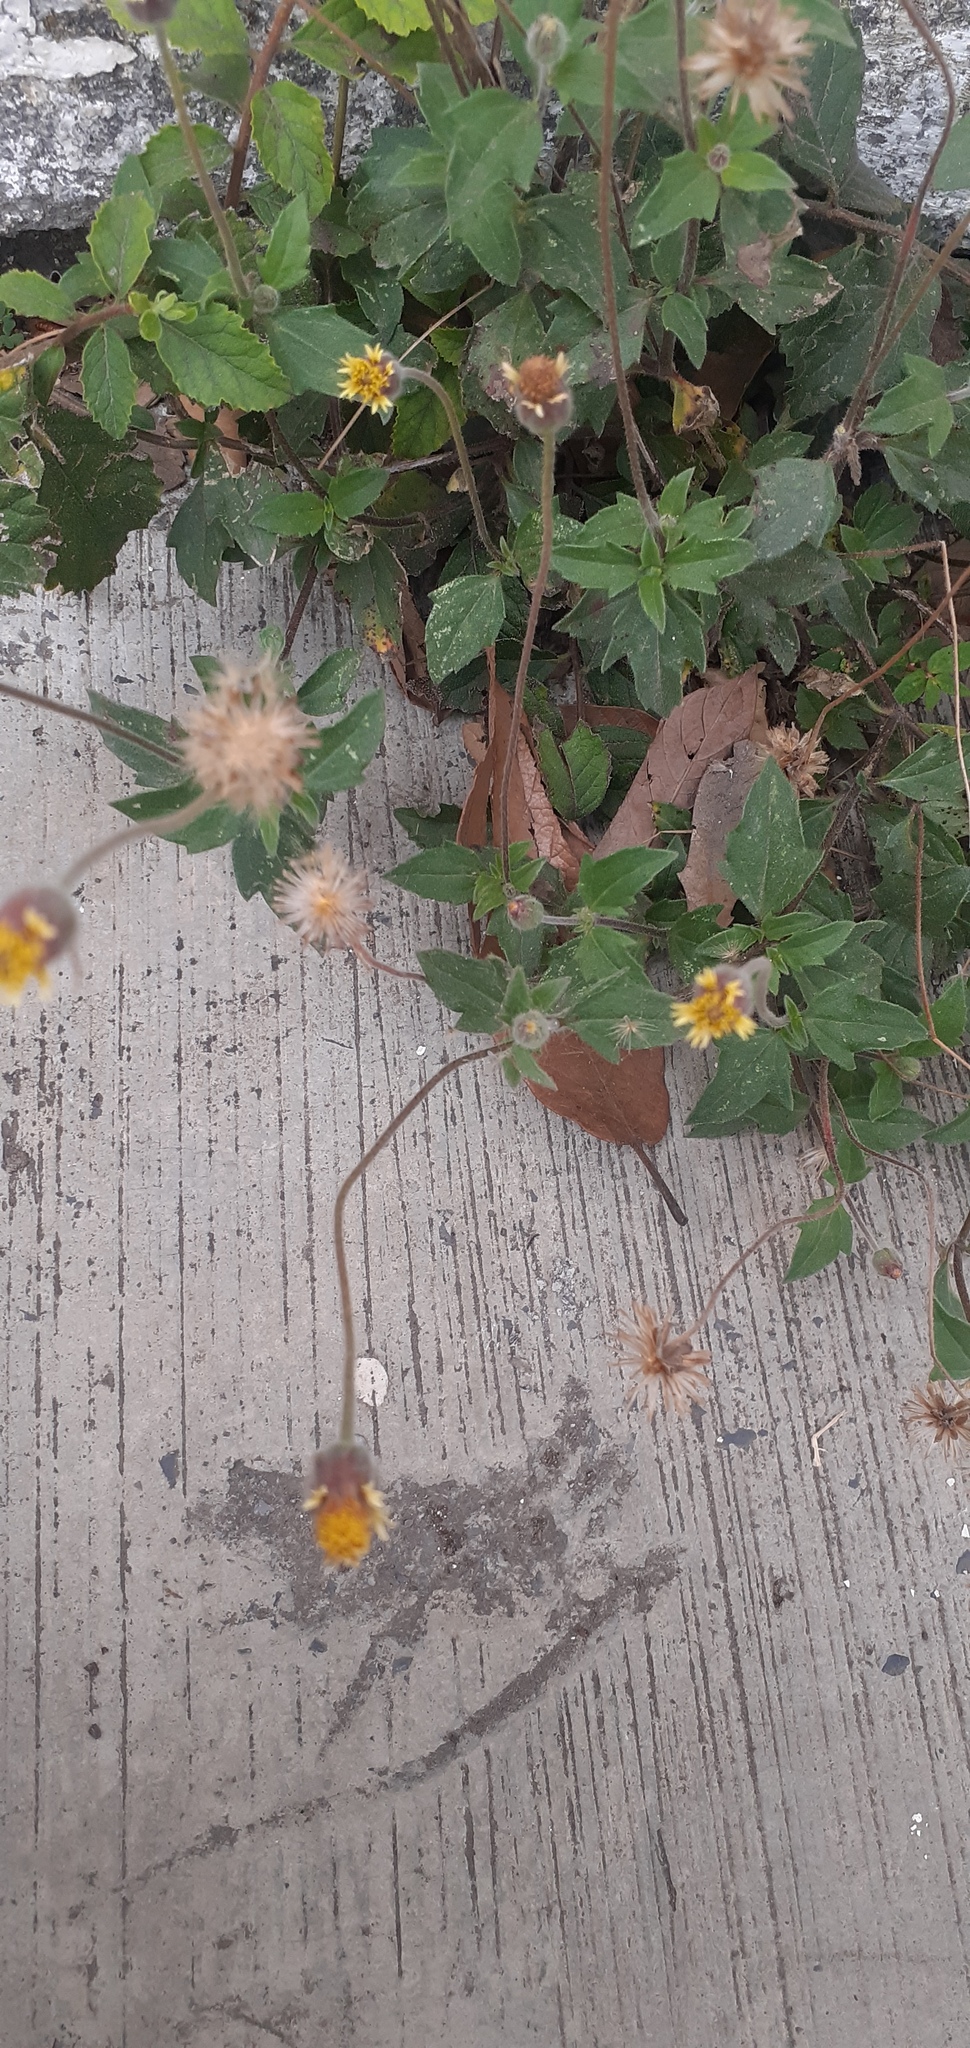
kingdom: Plantae
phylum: Tracheophyta
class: Magnoliopsida
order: Asterales
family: Asteraceae
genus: Tridax
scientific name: Tridax procumbens
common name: Coatbuttons
